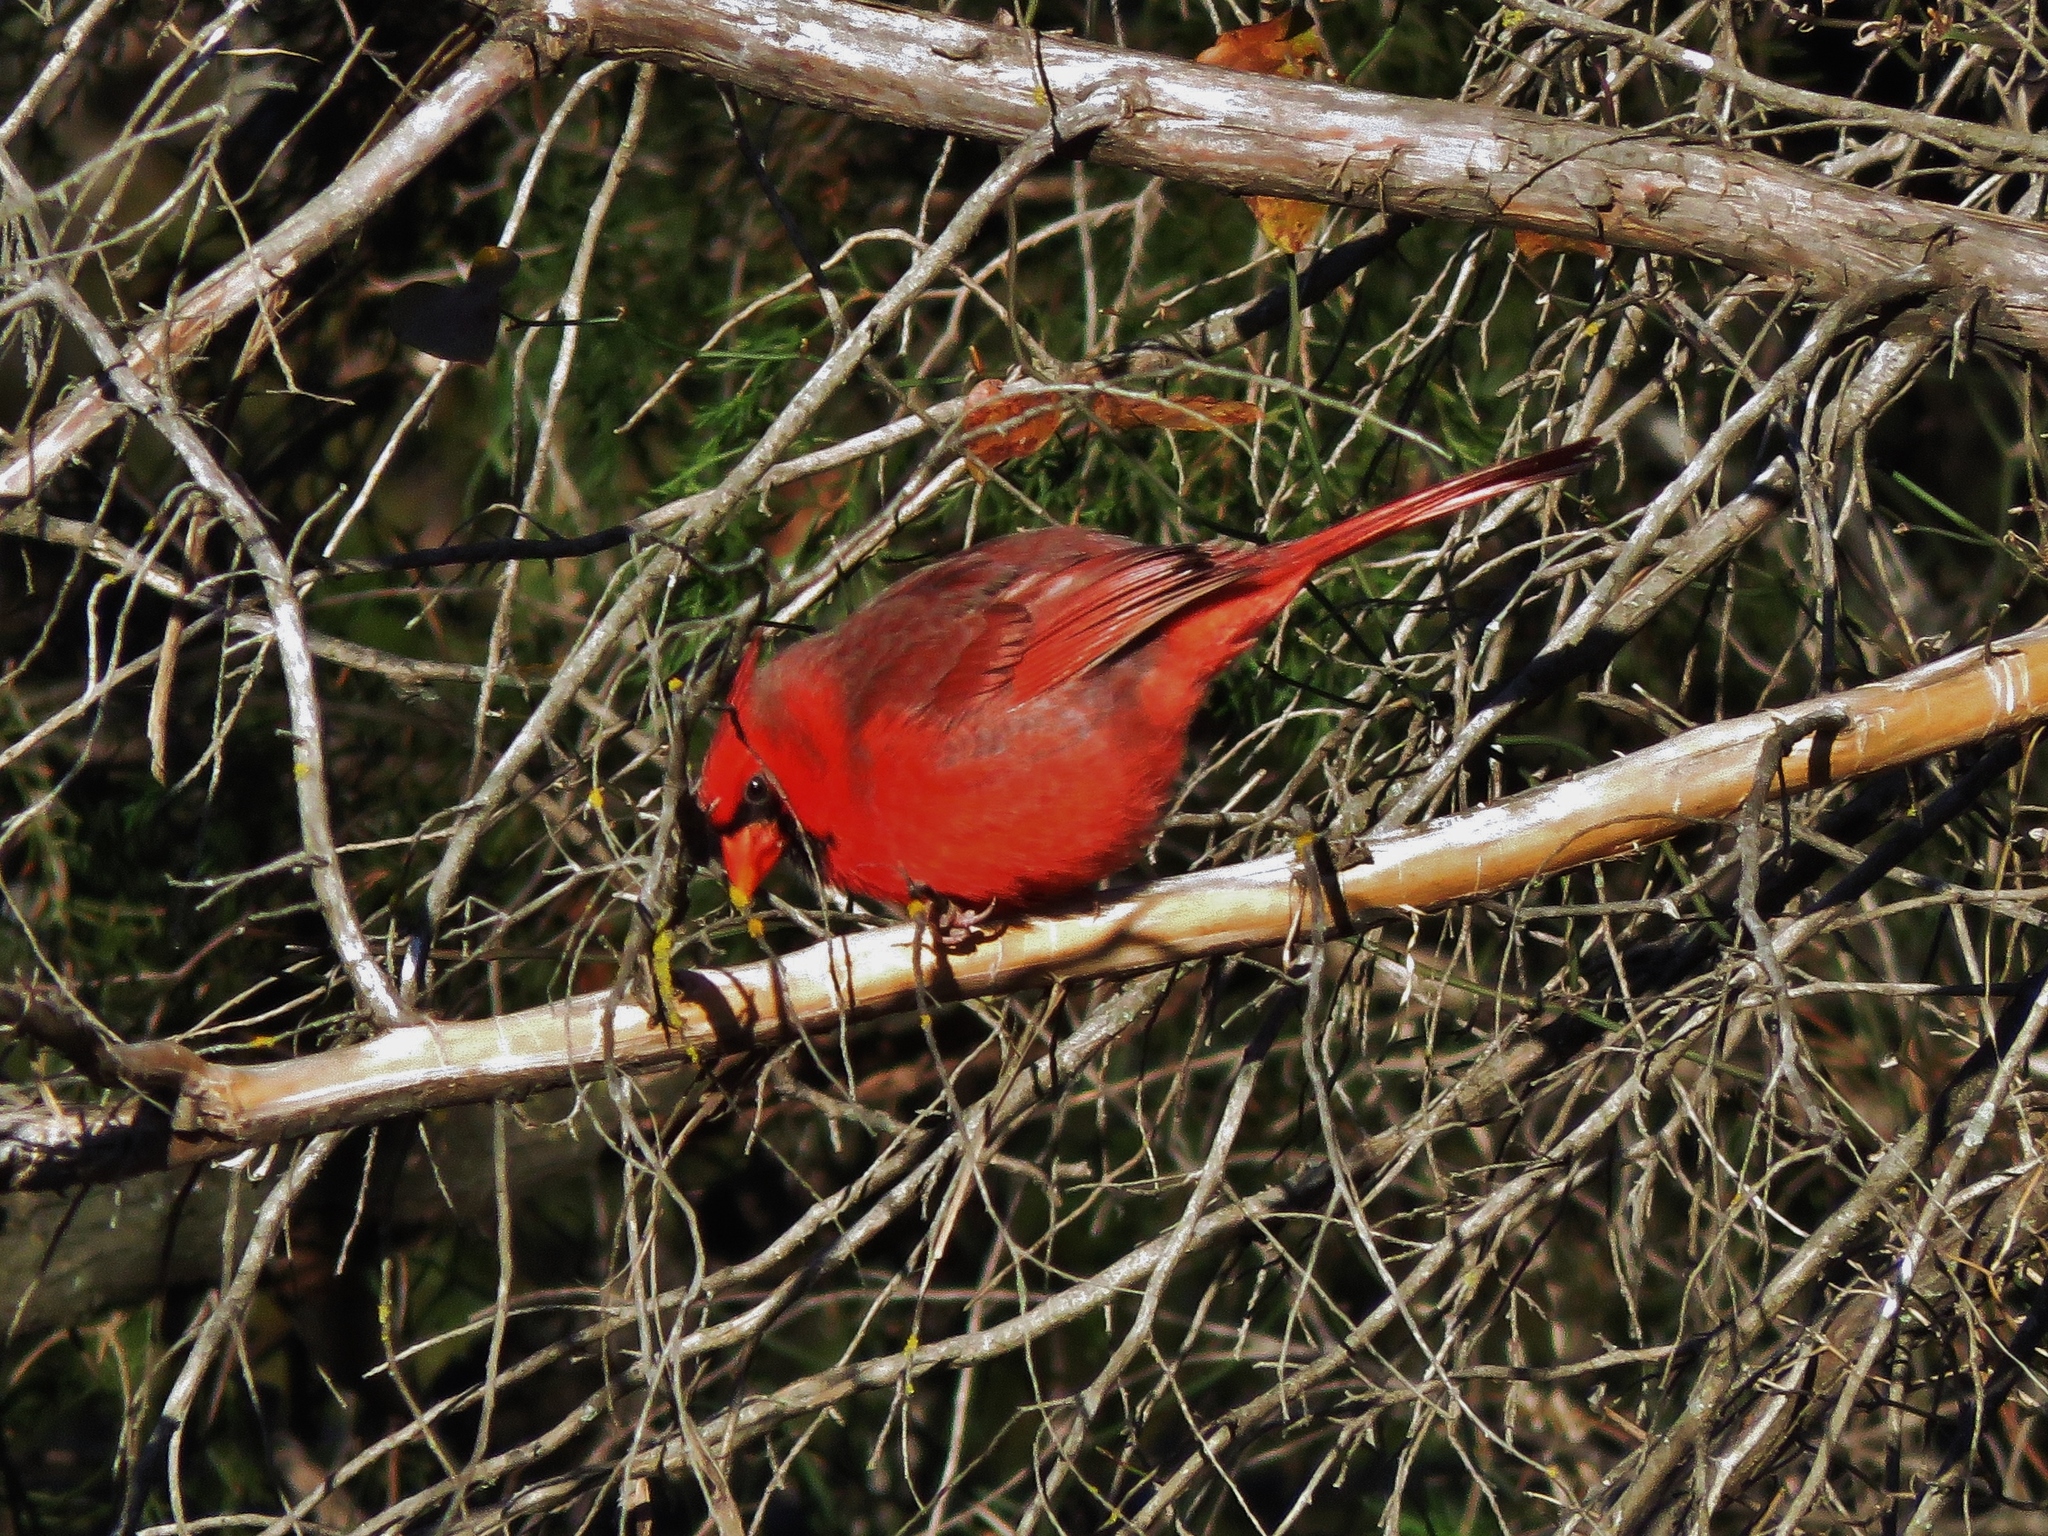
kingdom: Animalia
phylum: Chordata
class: Aves
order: Passeriformes
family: Cardinalidae
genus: Cardinalis
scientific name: Cardinalis cardinalis
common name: Northern cardinal
